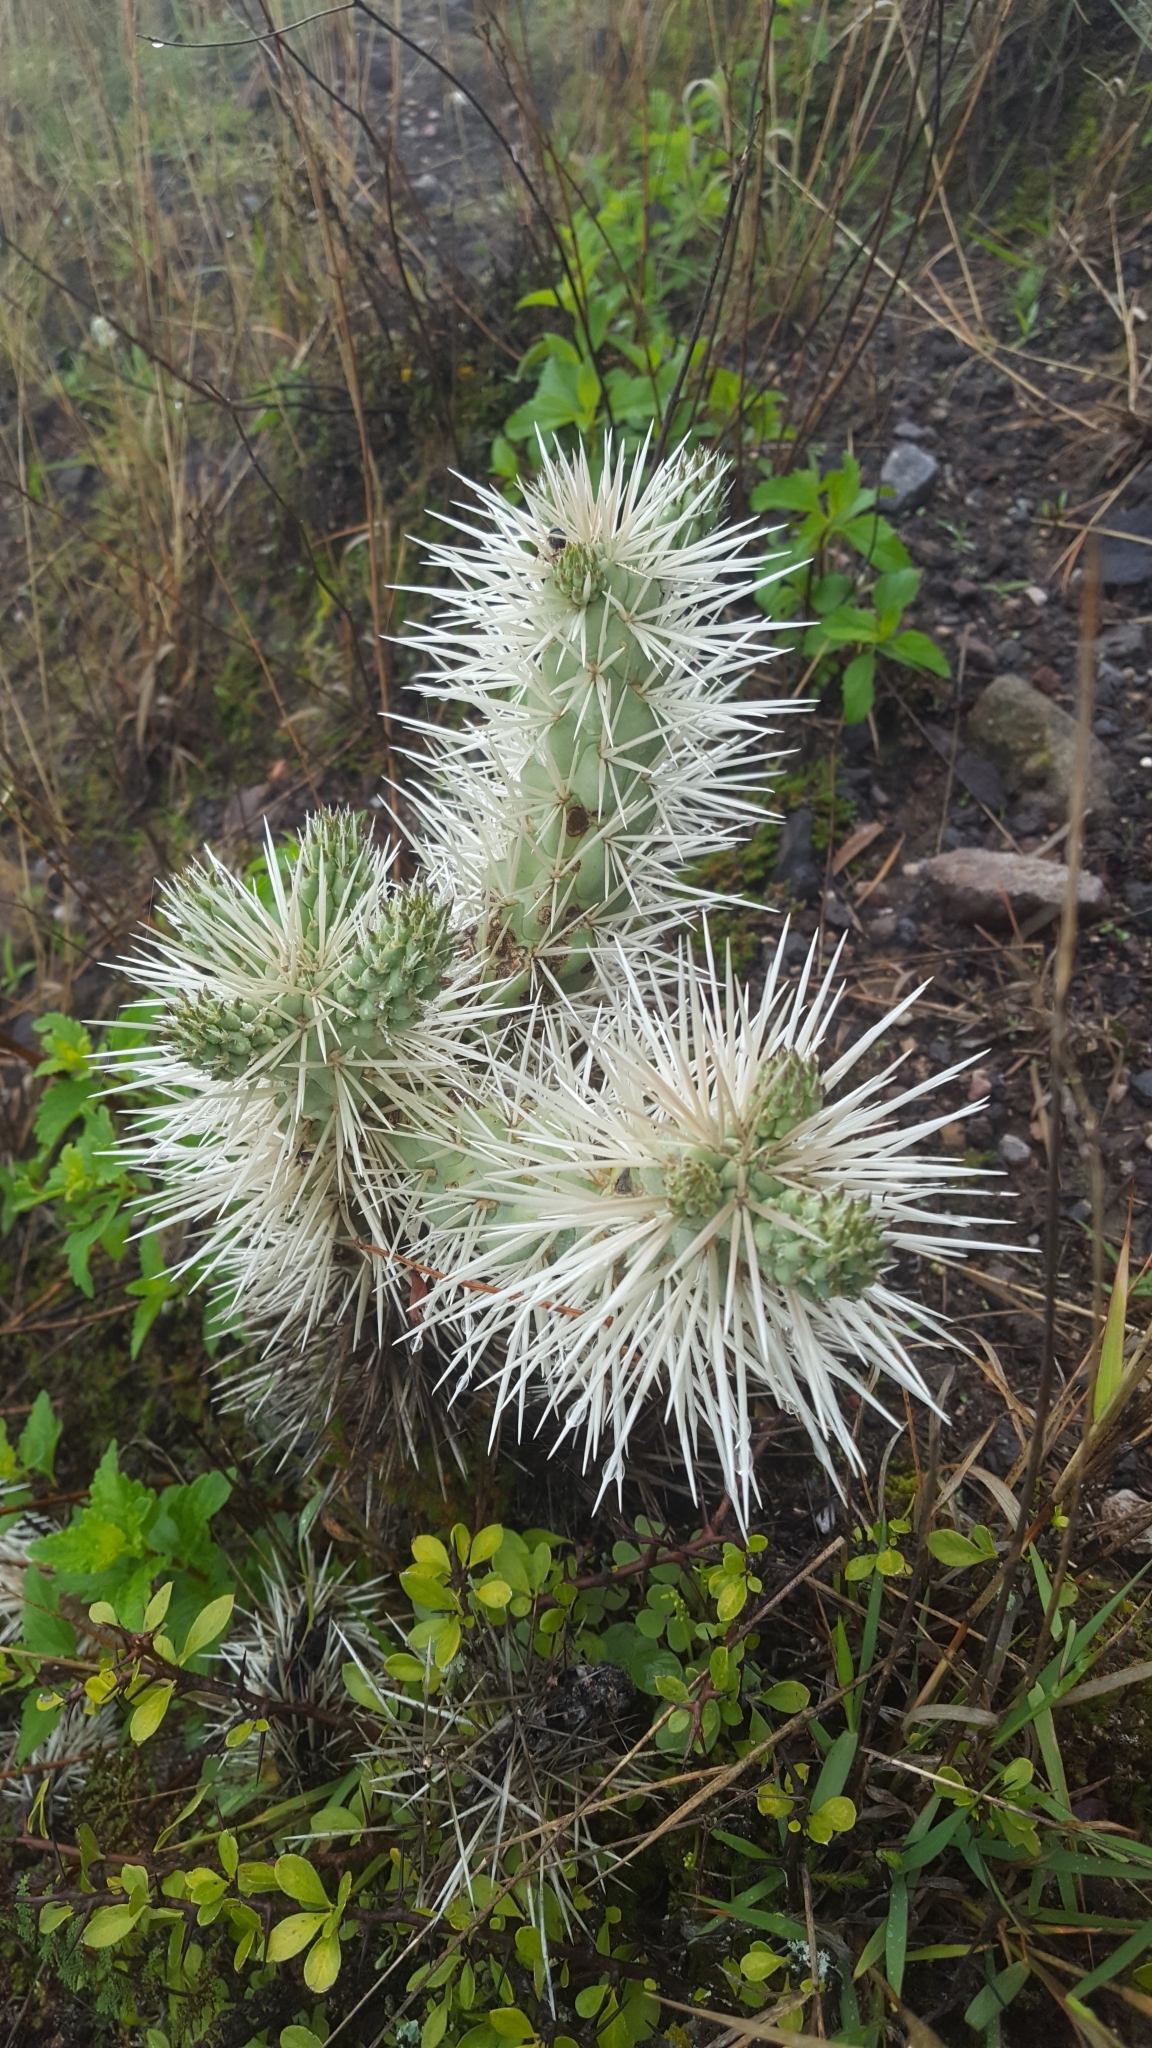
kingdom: Plantae
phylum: Tracheophyta
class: Magnoliopsida
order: Caryophyllales
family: Cactaceae
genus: Cylindropuntia
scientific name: Cylindropuntia tunicata
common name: Sheathed cholla
